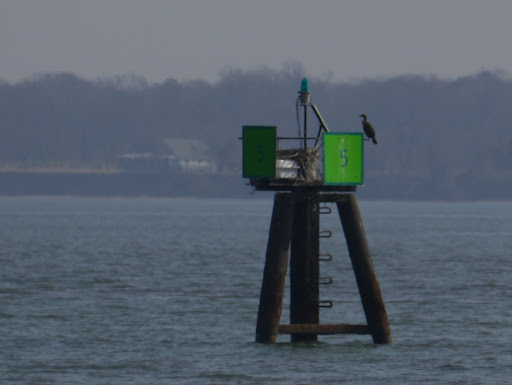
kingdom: Animalia
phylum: Chordata
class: Aves
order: Suliformes
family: Phalacrocoracidae
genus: Phalacrocorax
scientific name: Phalacrocorax auritus
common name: Double-crested cormorant
